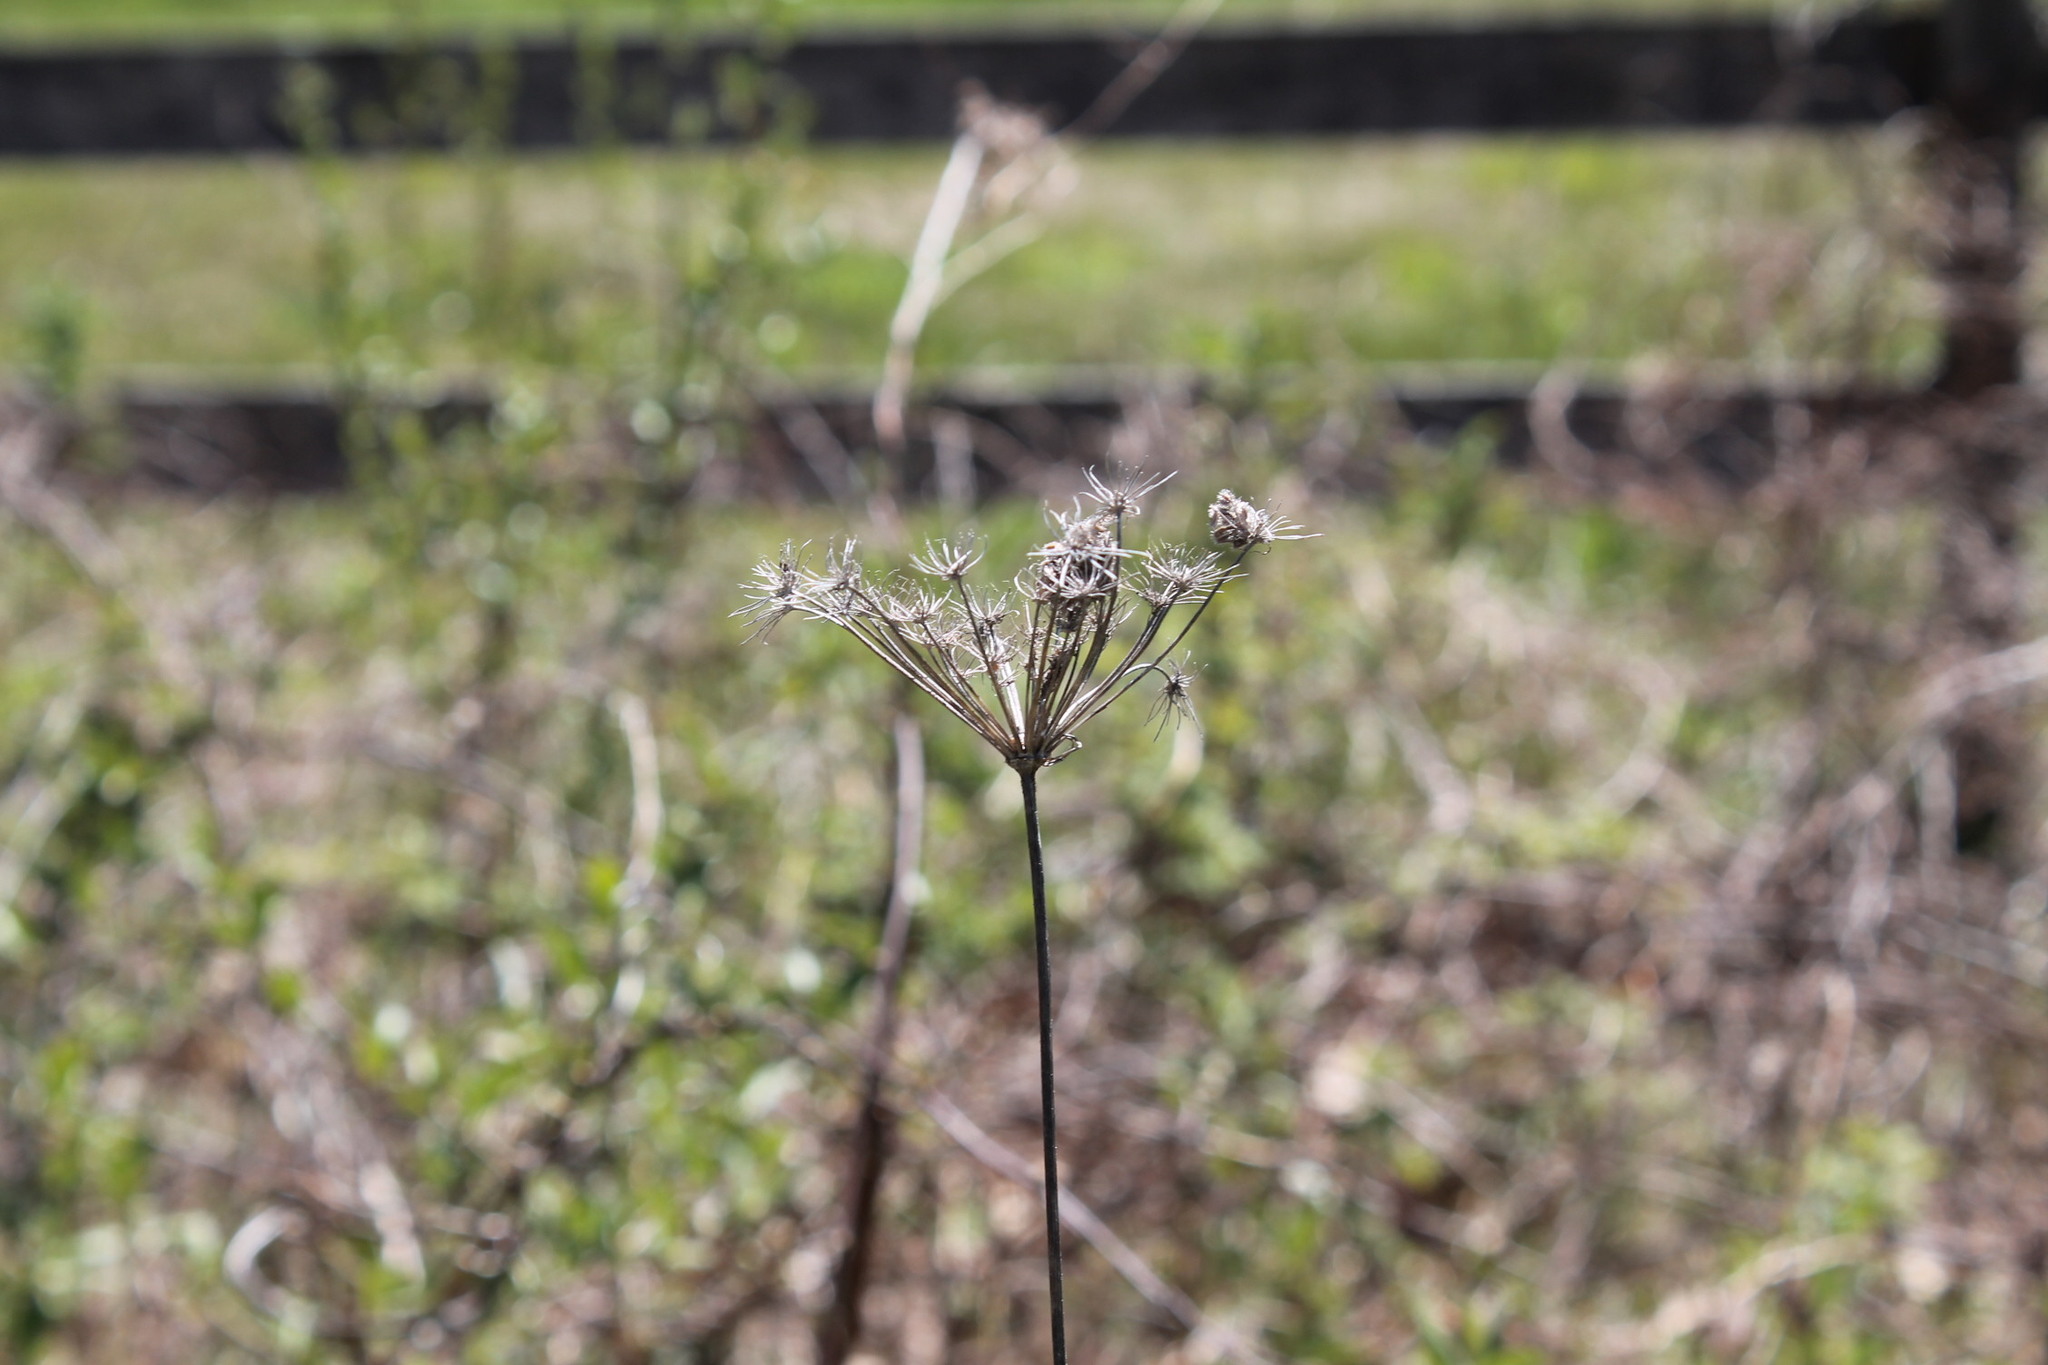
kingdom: Plantae
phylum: Tracheophyta
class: Magnoliopsida
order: Apiales
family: Apiaceae
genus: Daucus
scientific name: Daucus carota
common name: Wild carrot
